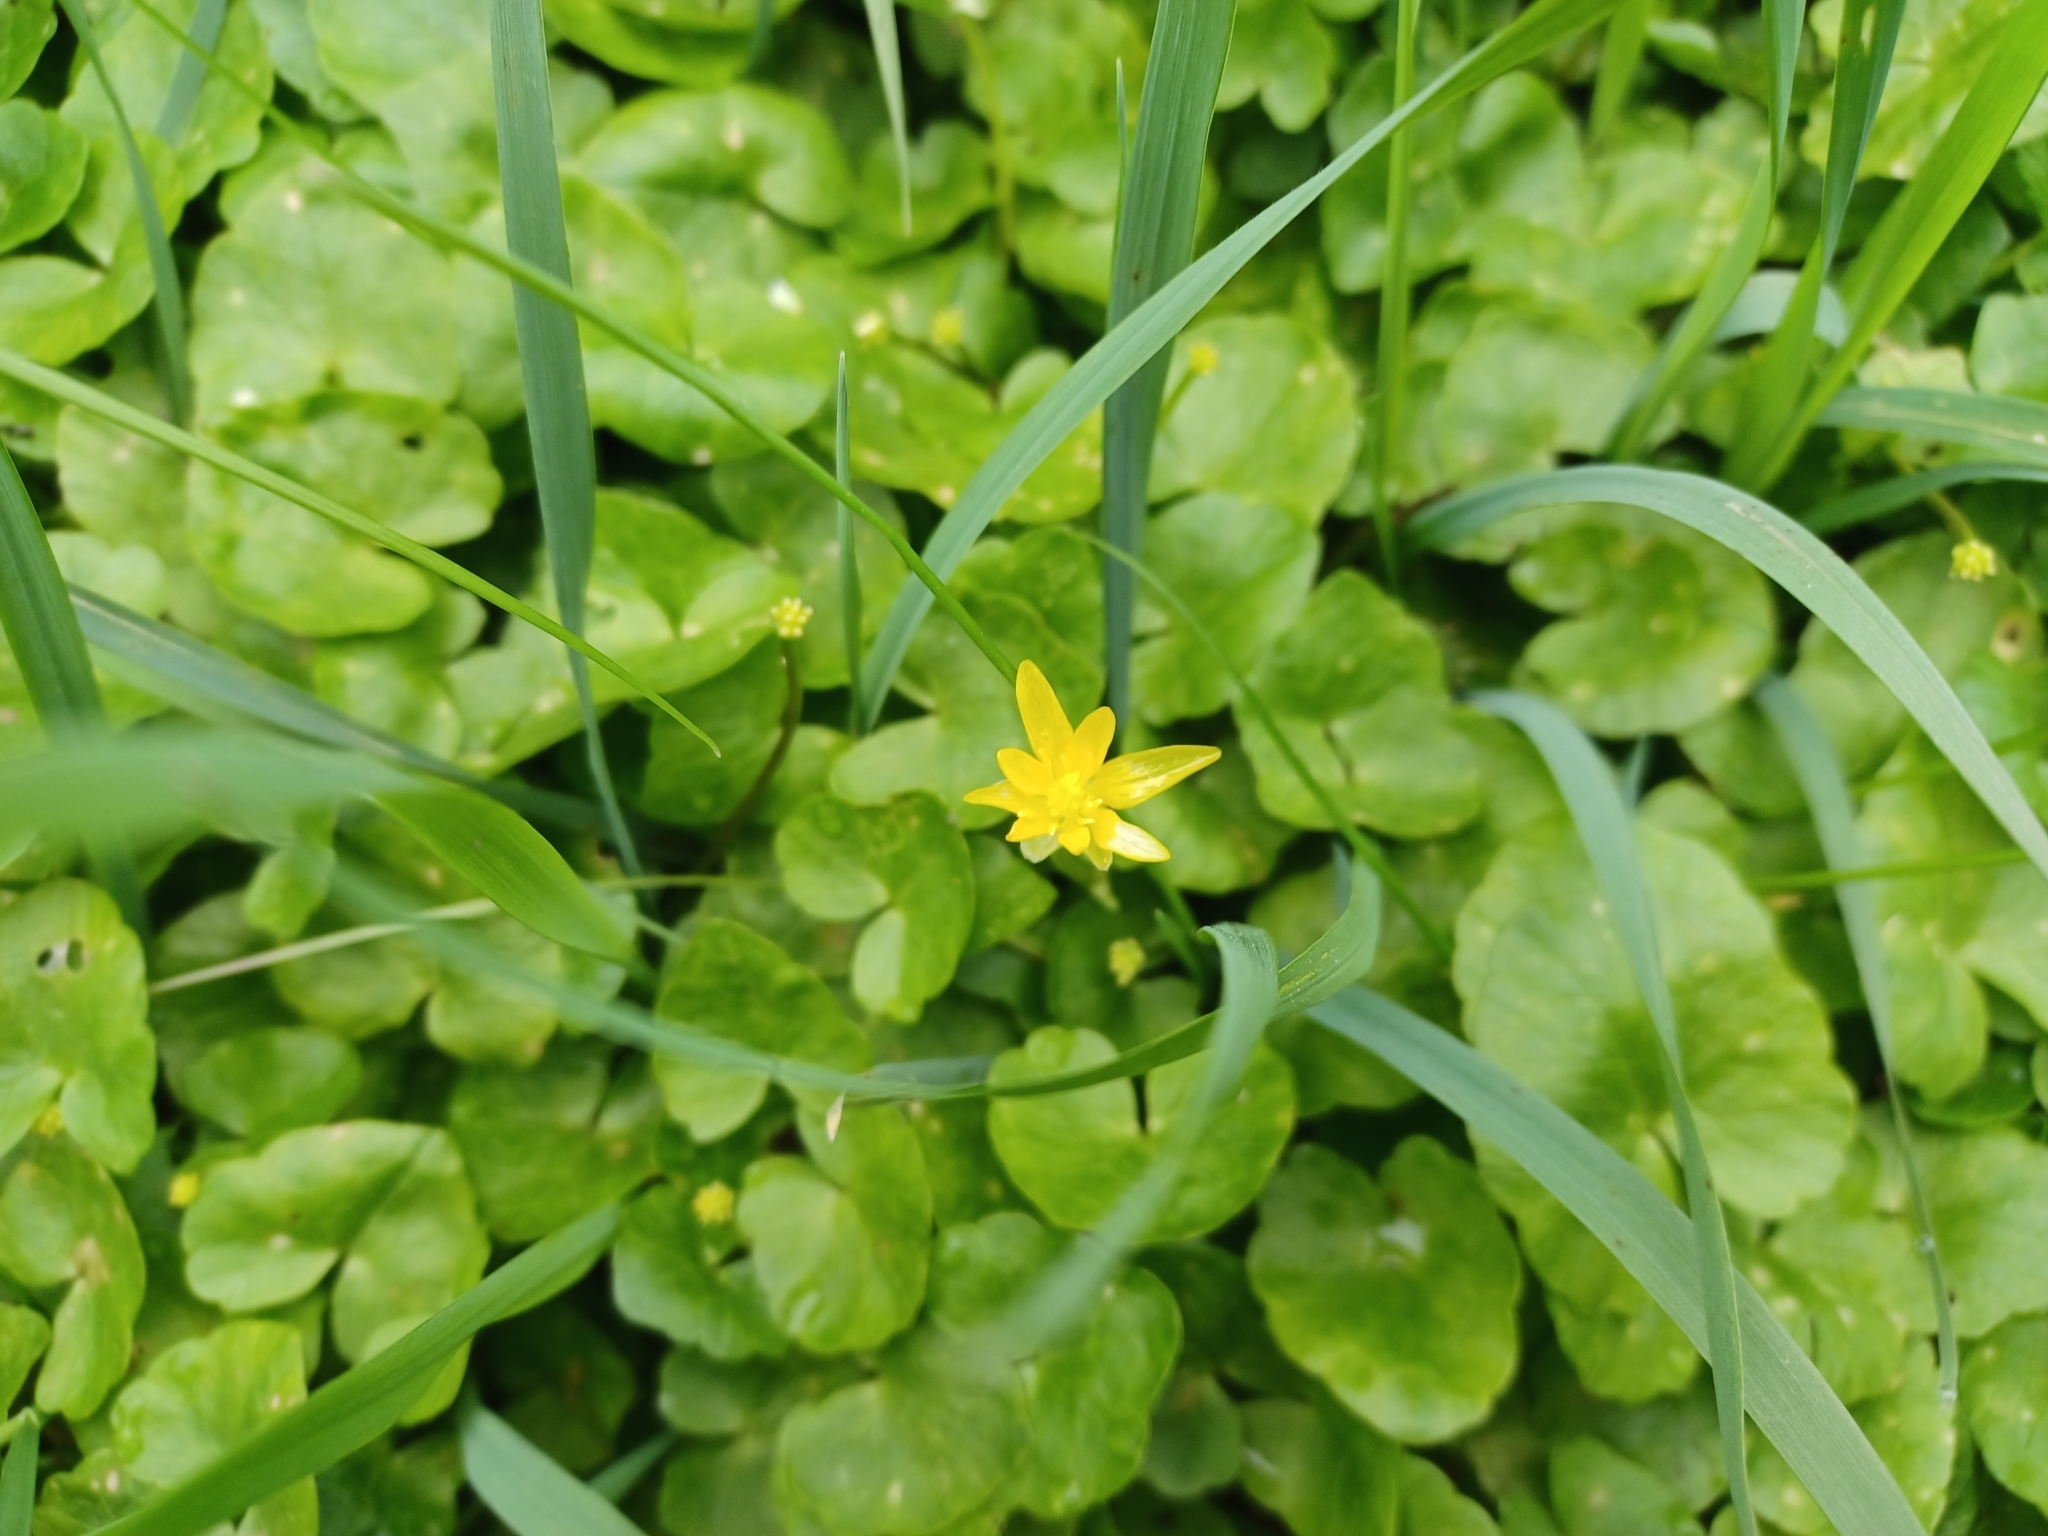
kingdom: Plantae
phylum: Tracheophyta
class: Magnoliopsida
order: Ranunculales
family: Ranunculaceae
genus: Ficaria
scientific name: Ficaria verna
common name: Lesser celandine
